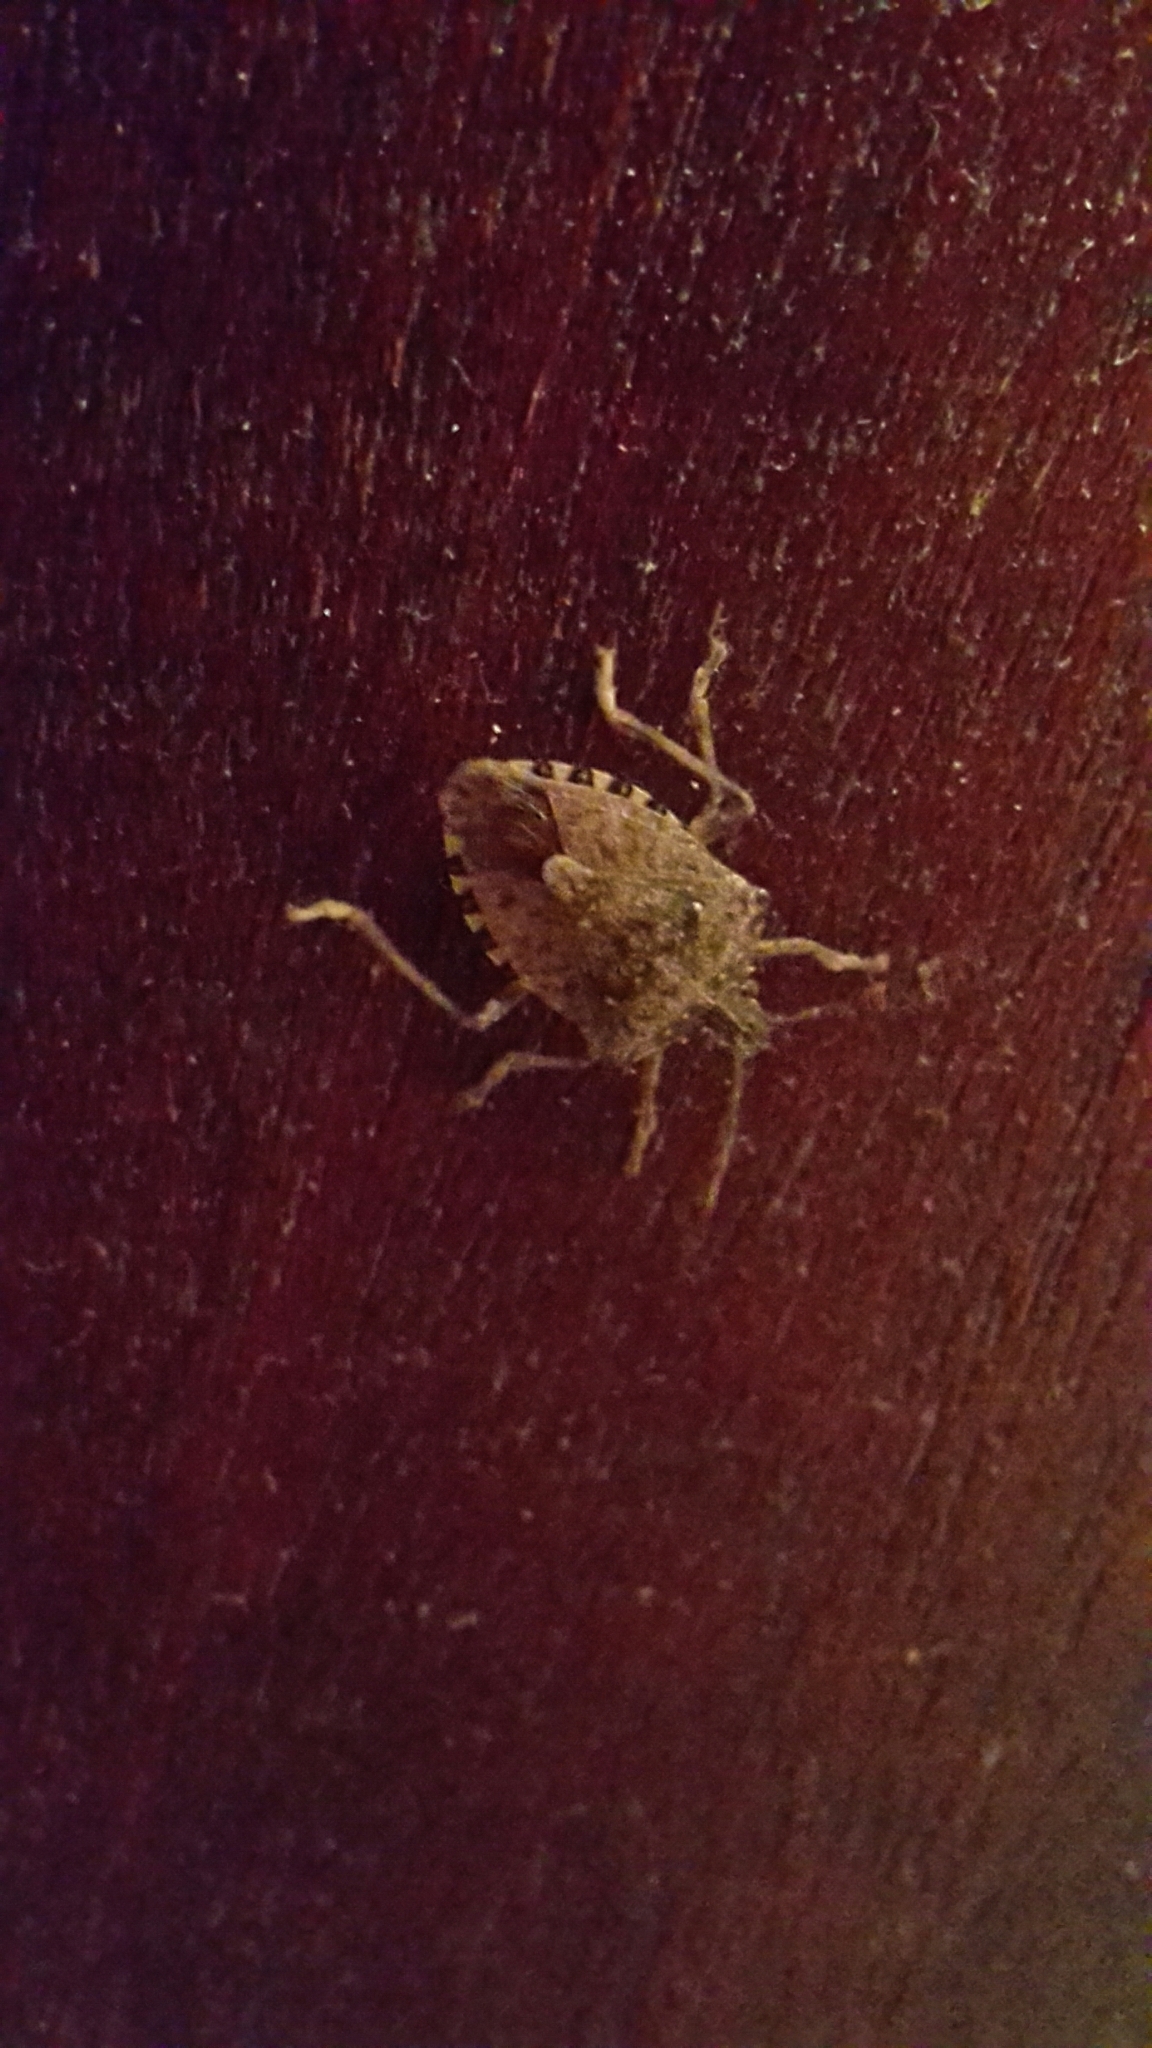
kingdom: Animalia
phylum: Arthropoda
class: Insecta
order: Hemiptera
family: Pentatomidae
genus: Halyomorpha
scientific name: Halyomorpha halys
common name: Brown marmorated stink bug
